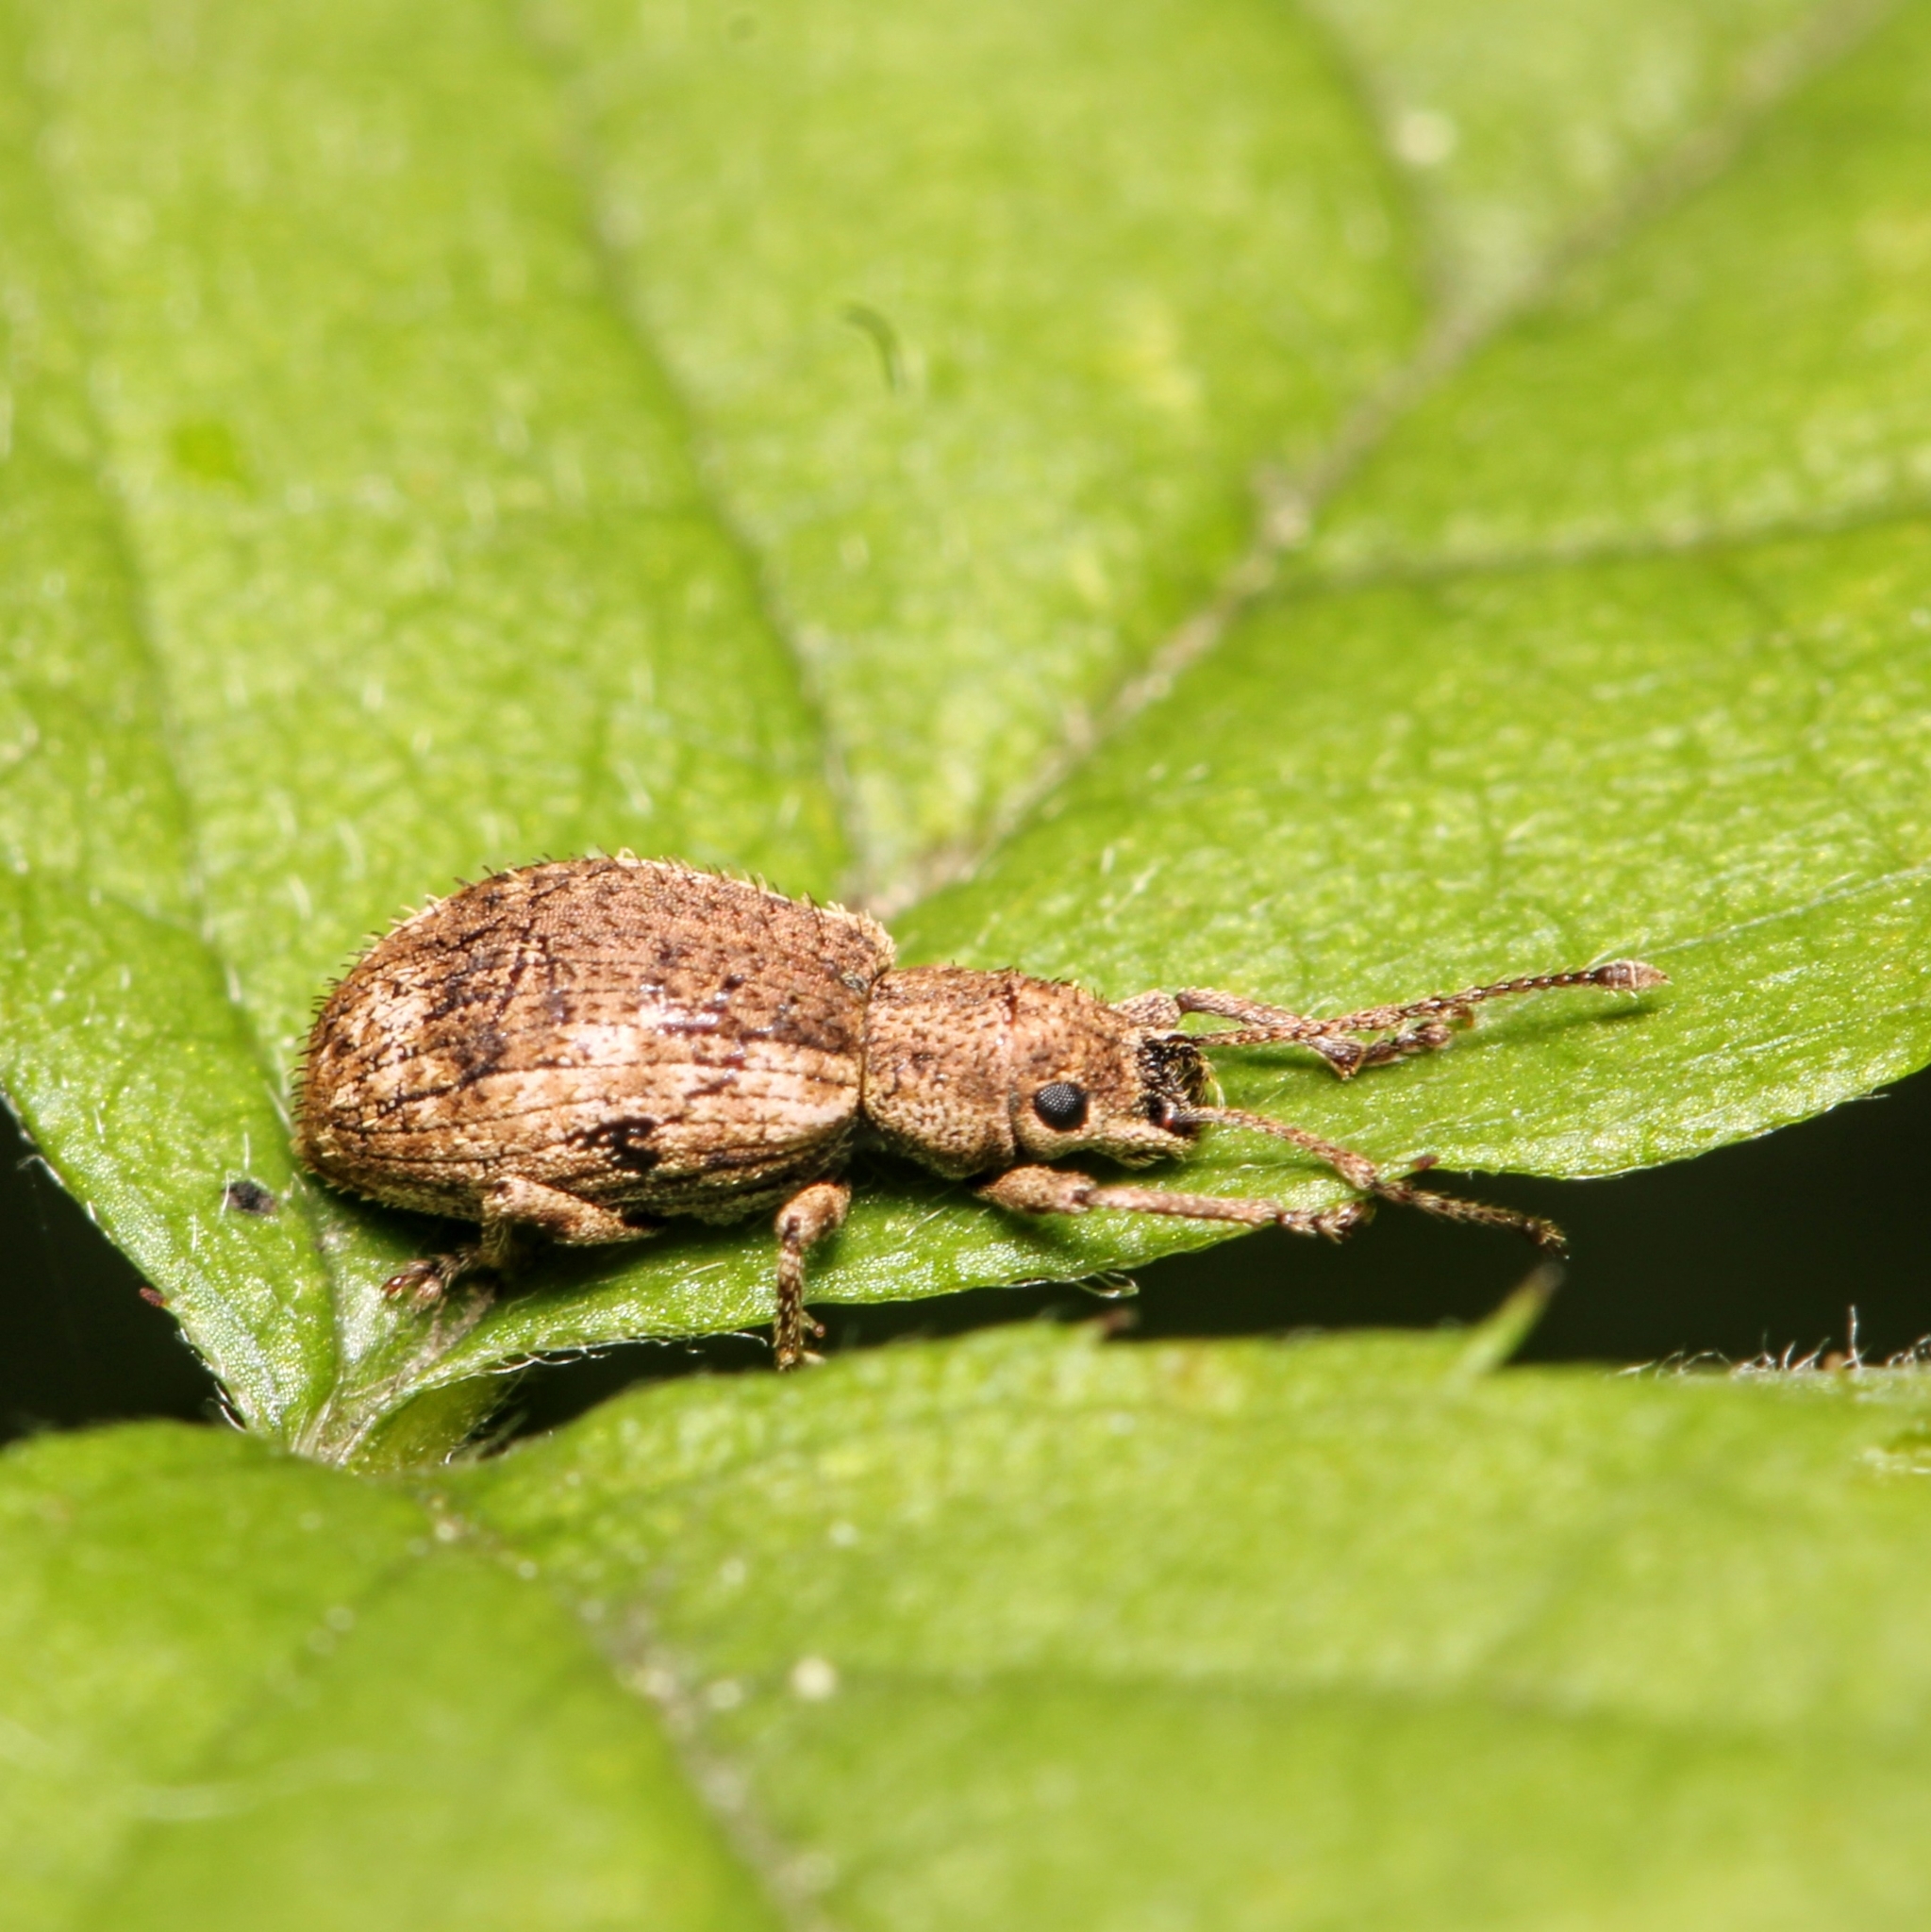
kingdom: Animalia
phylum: Arthropoda
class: Insecta
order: Coleoptera
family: Curculionidae
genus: Pseudoedophrys
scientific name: Pseudoedophrys hilleri
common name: Weevil
